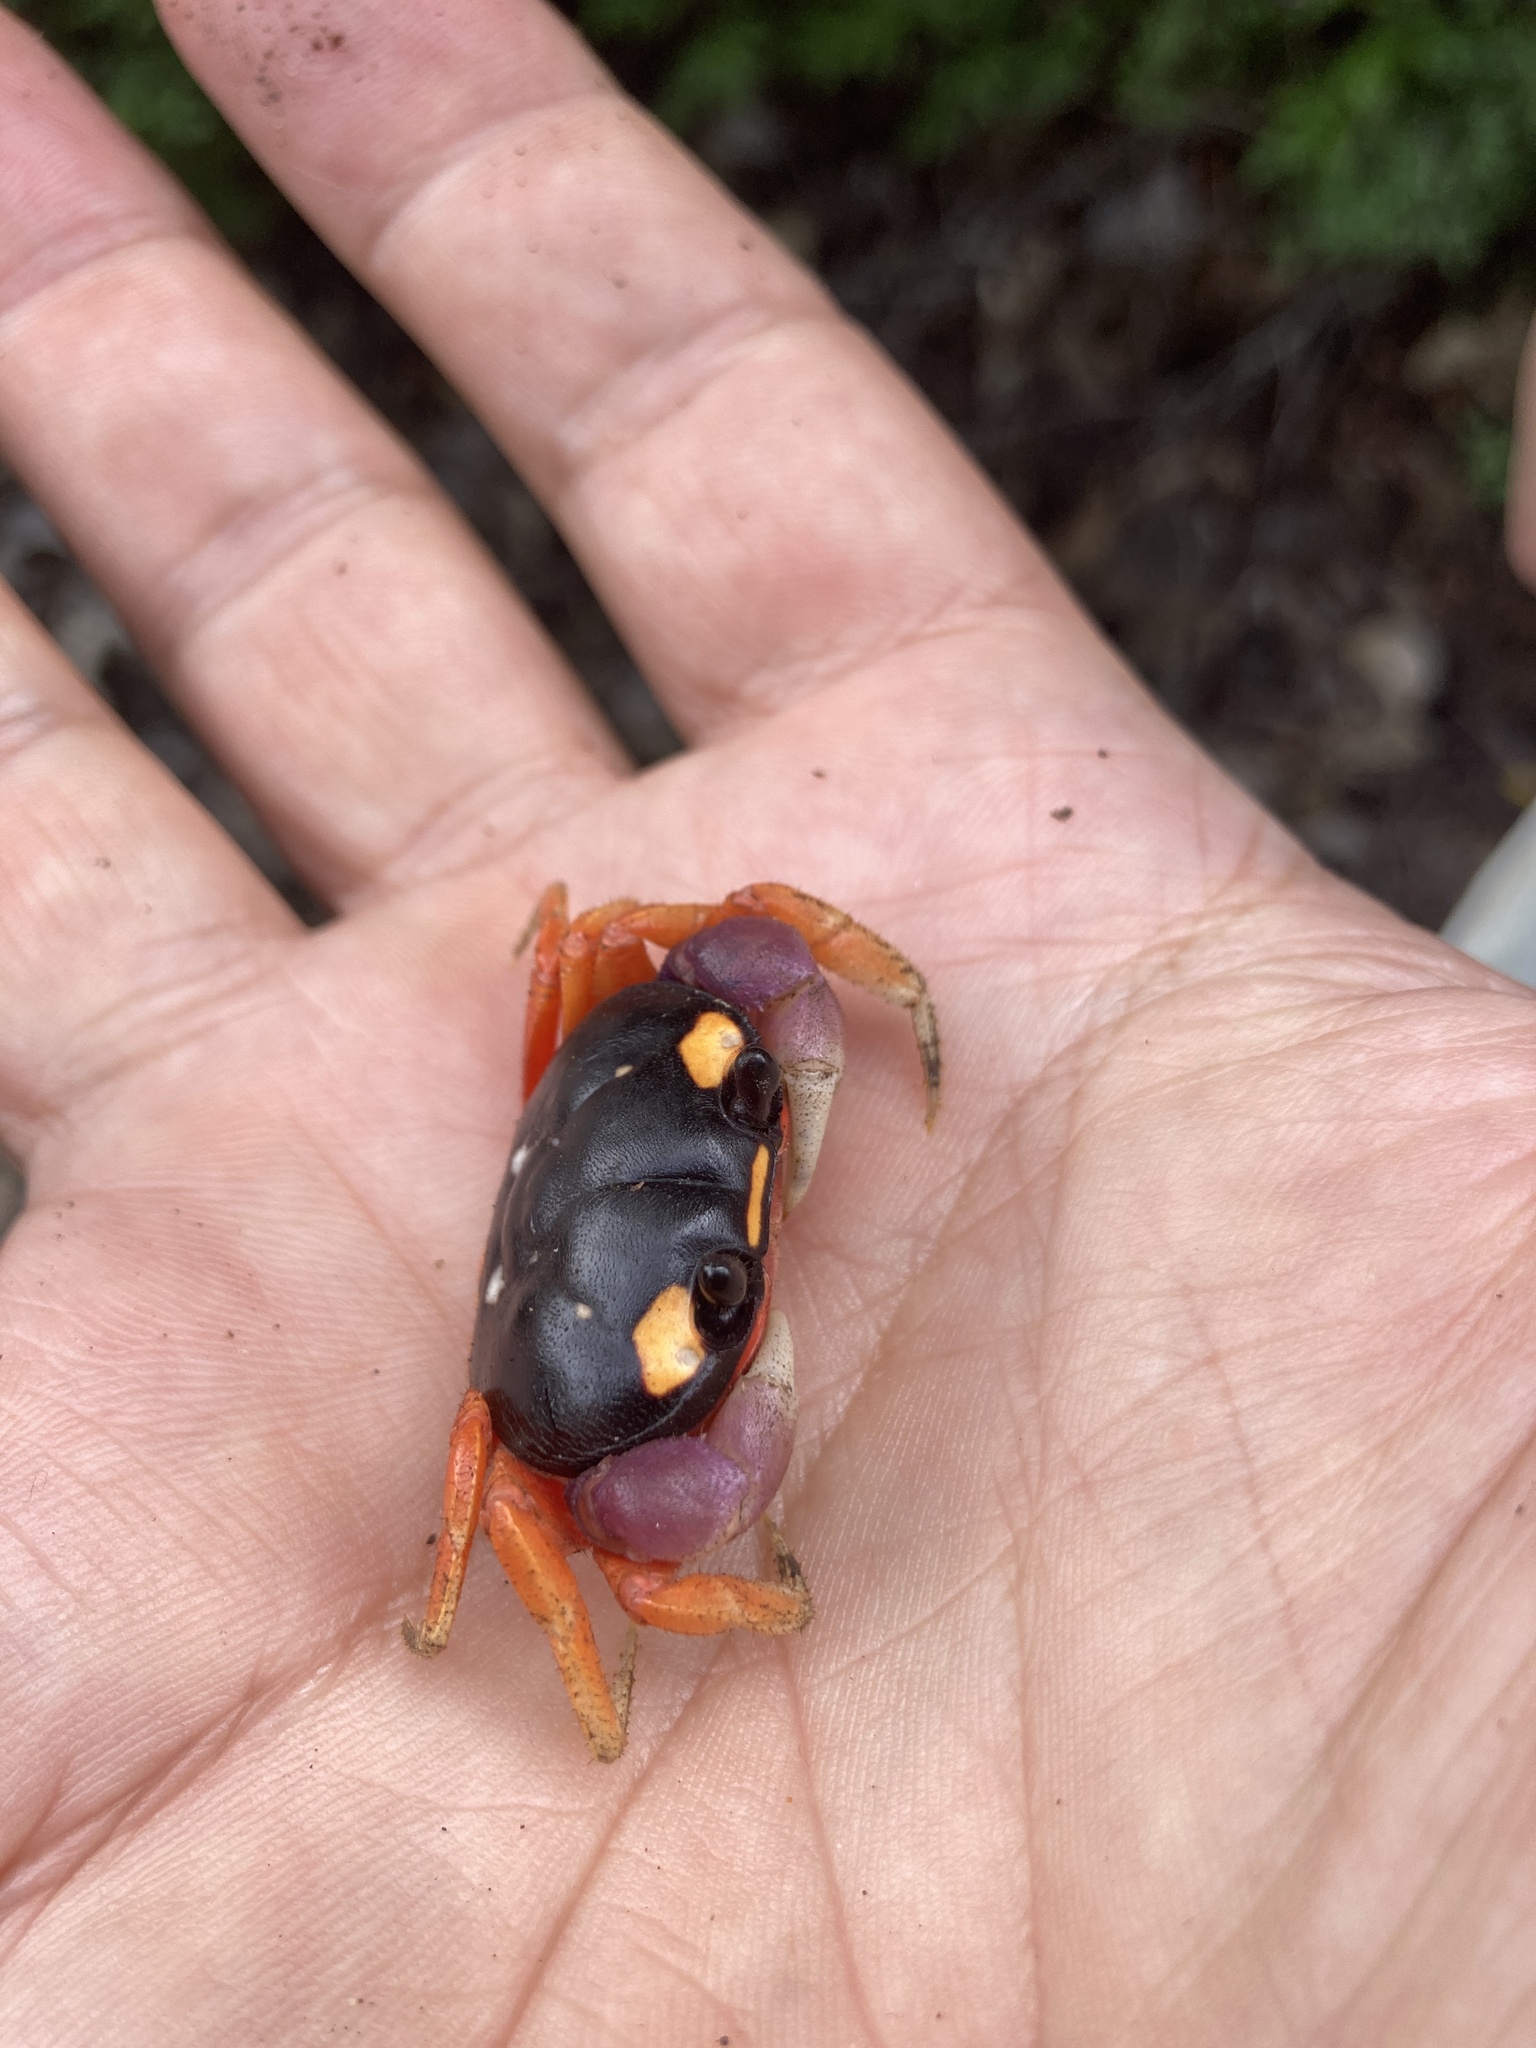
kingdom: Animalia
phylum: Arthropoda
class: Malacostraca
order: Decapoda
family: Gecarcinidae
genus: Gecarcinus
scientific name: Gecarcinus quadratus
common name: Halloween crab
